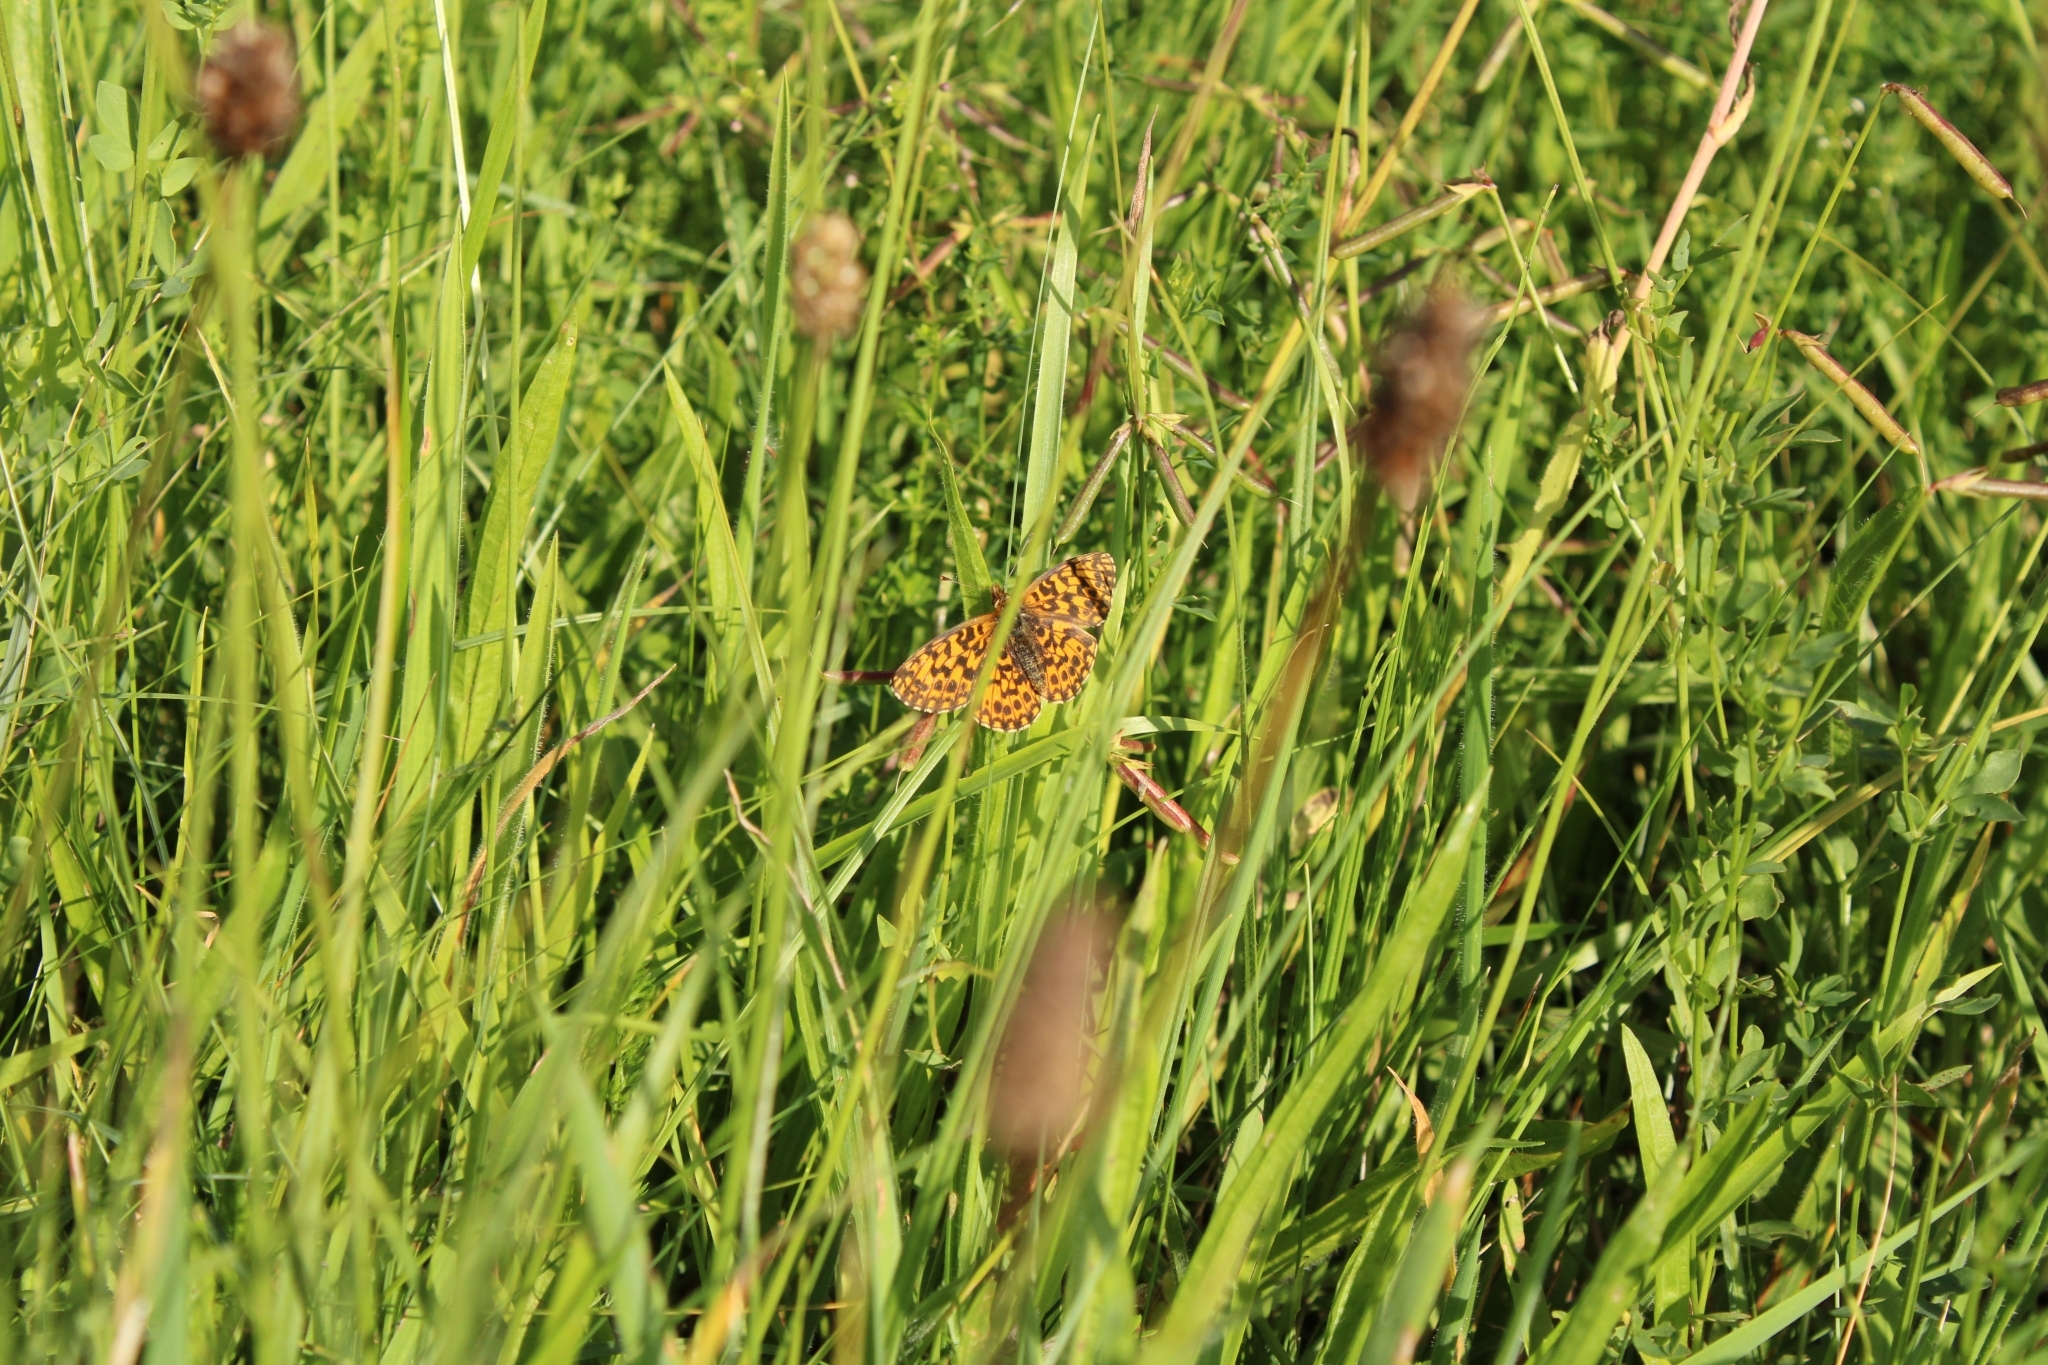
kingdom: Animalia
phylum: Arthropoda
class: Insecta
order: Lepidoptera
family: Nymphalidae
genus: Boloria
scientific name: Boloria dia
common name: Weaver's fritillary
